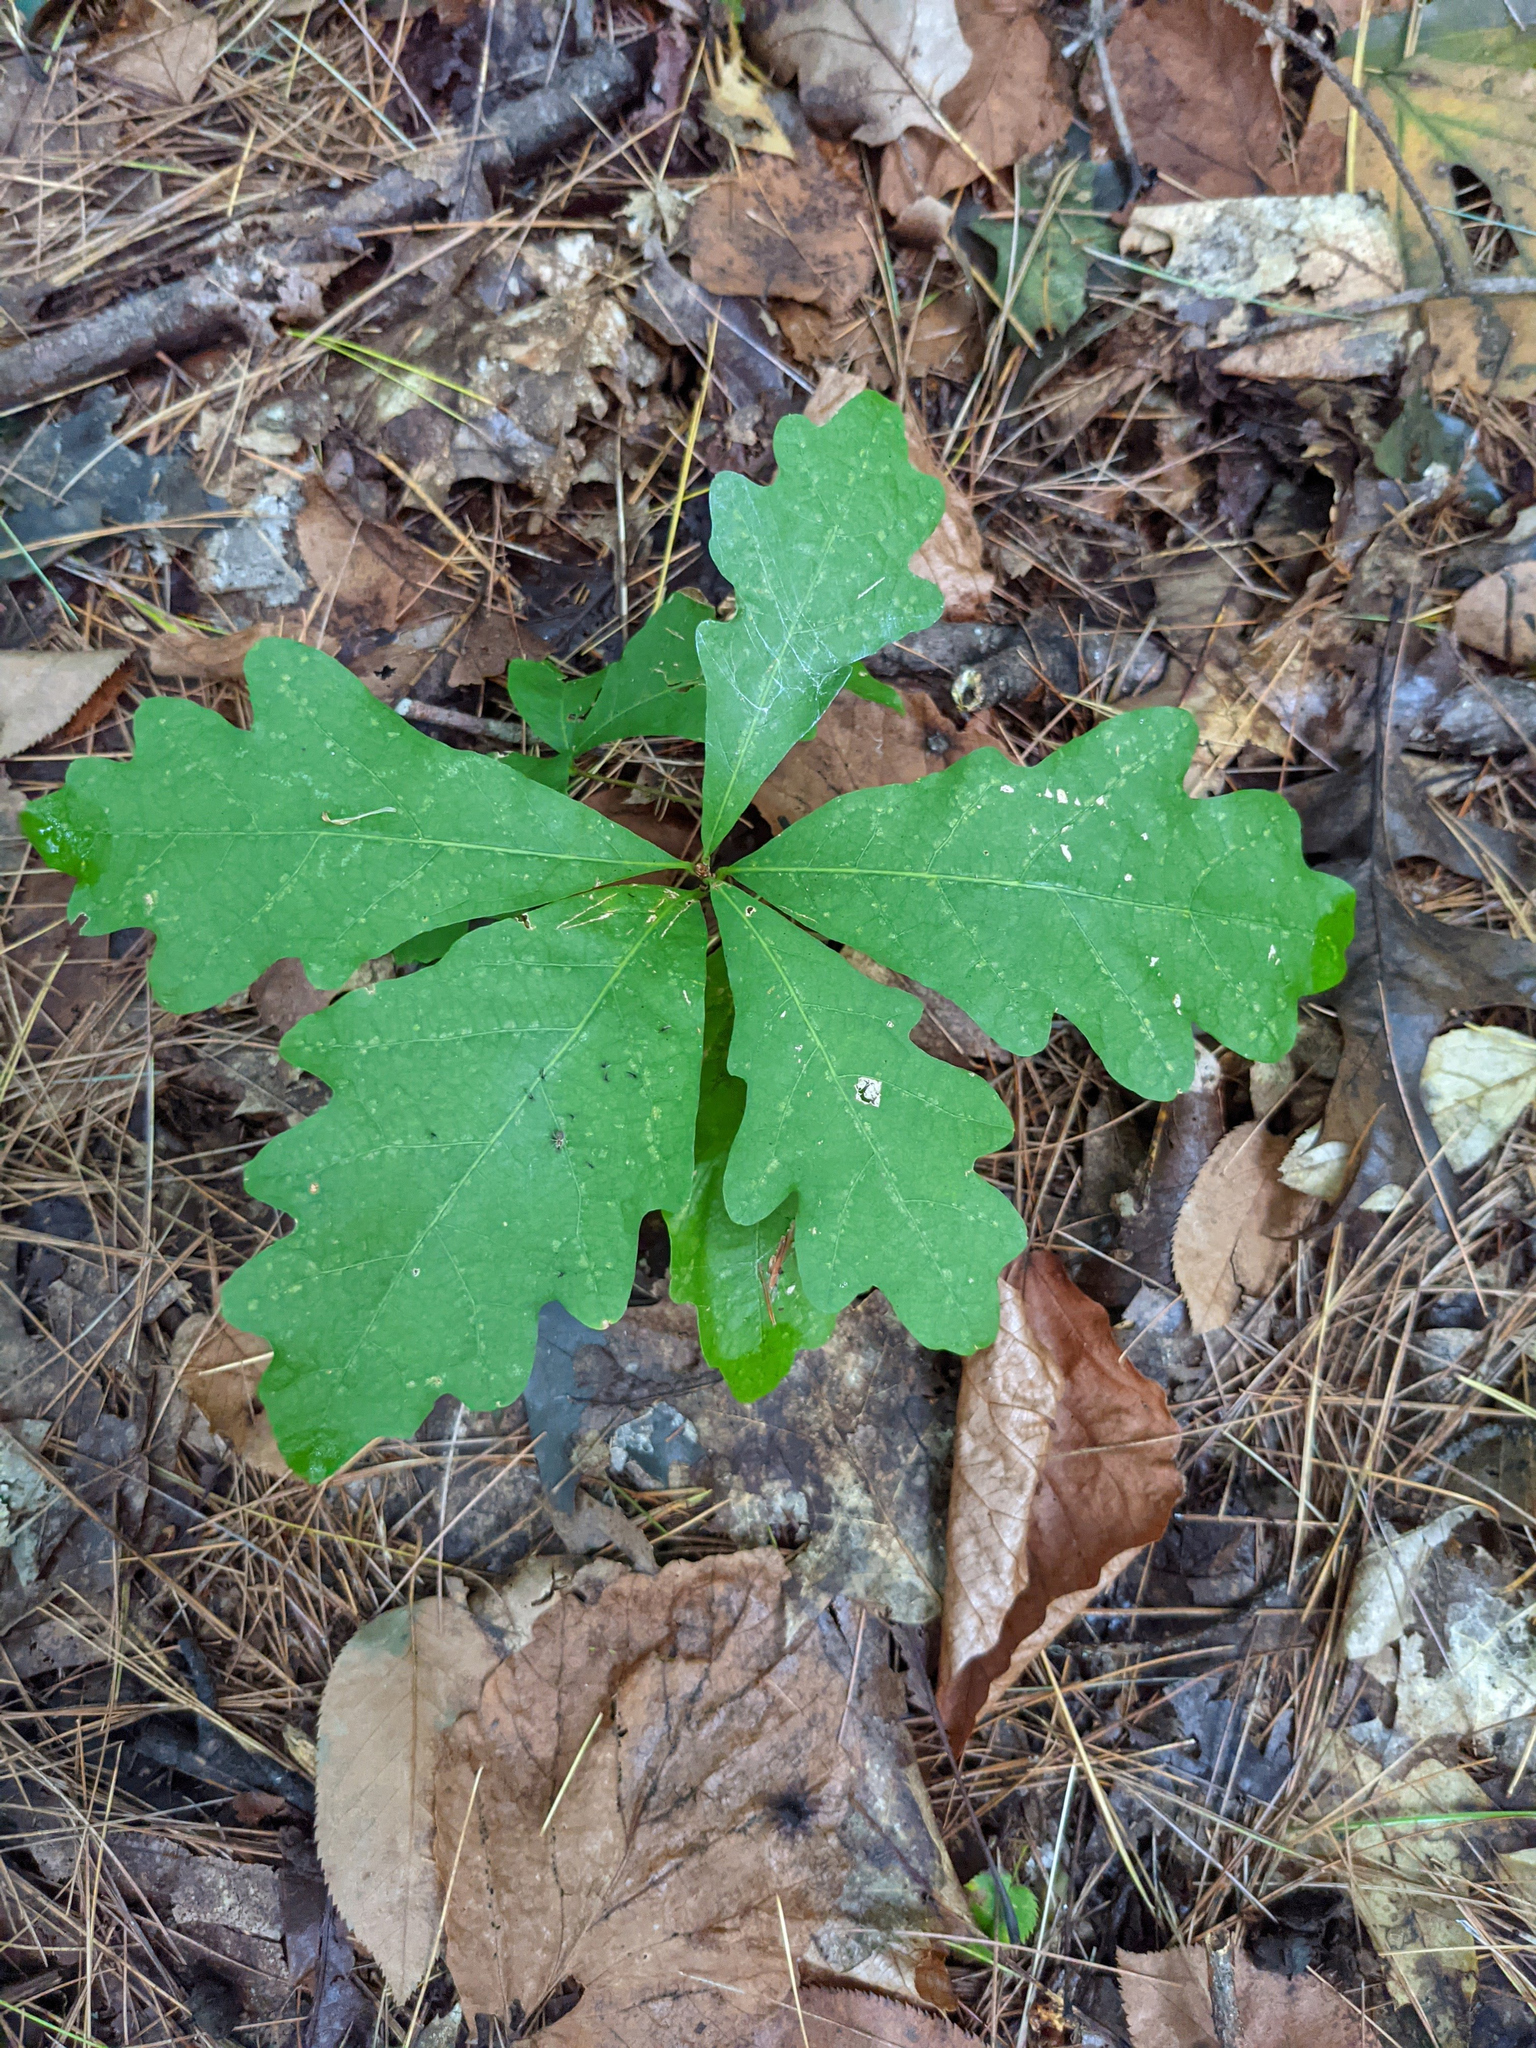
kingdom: Plantae
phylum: Tracheophyta
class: Magnoliopsida
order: Fagales
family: Fagaceae
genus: Quercus
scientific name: Quercus alba
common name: White oak
